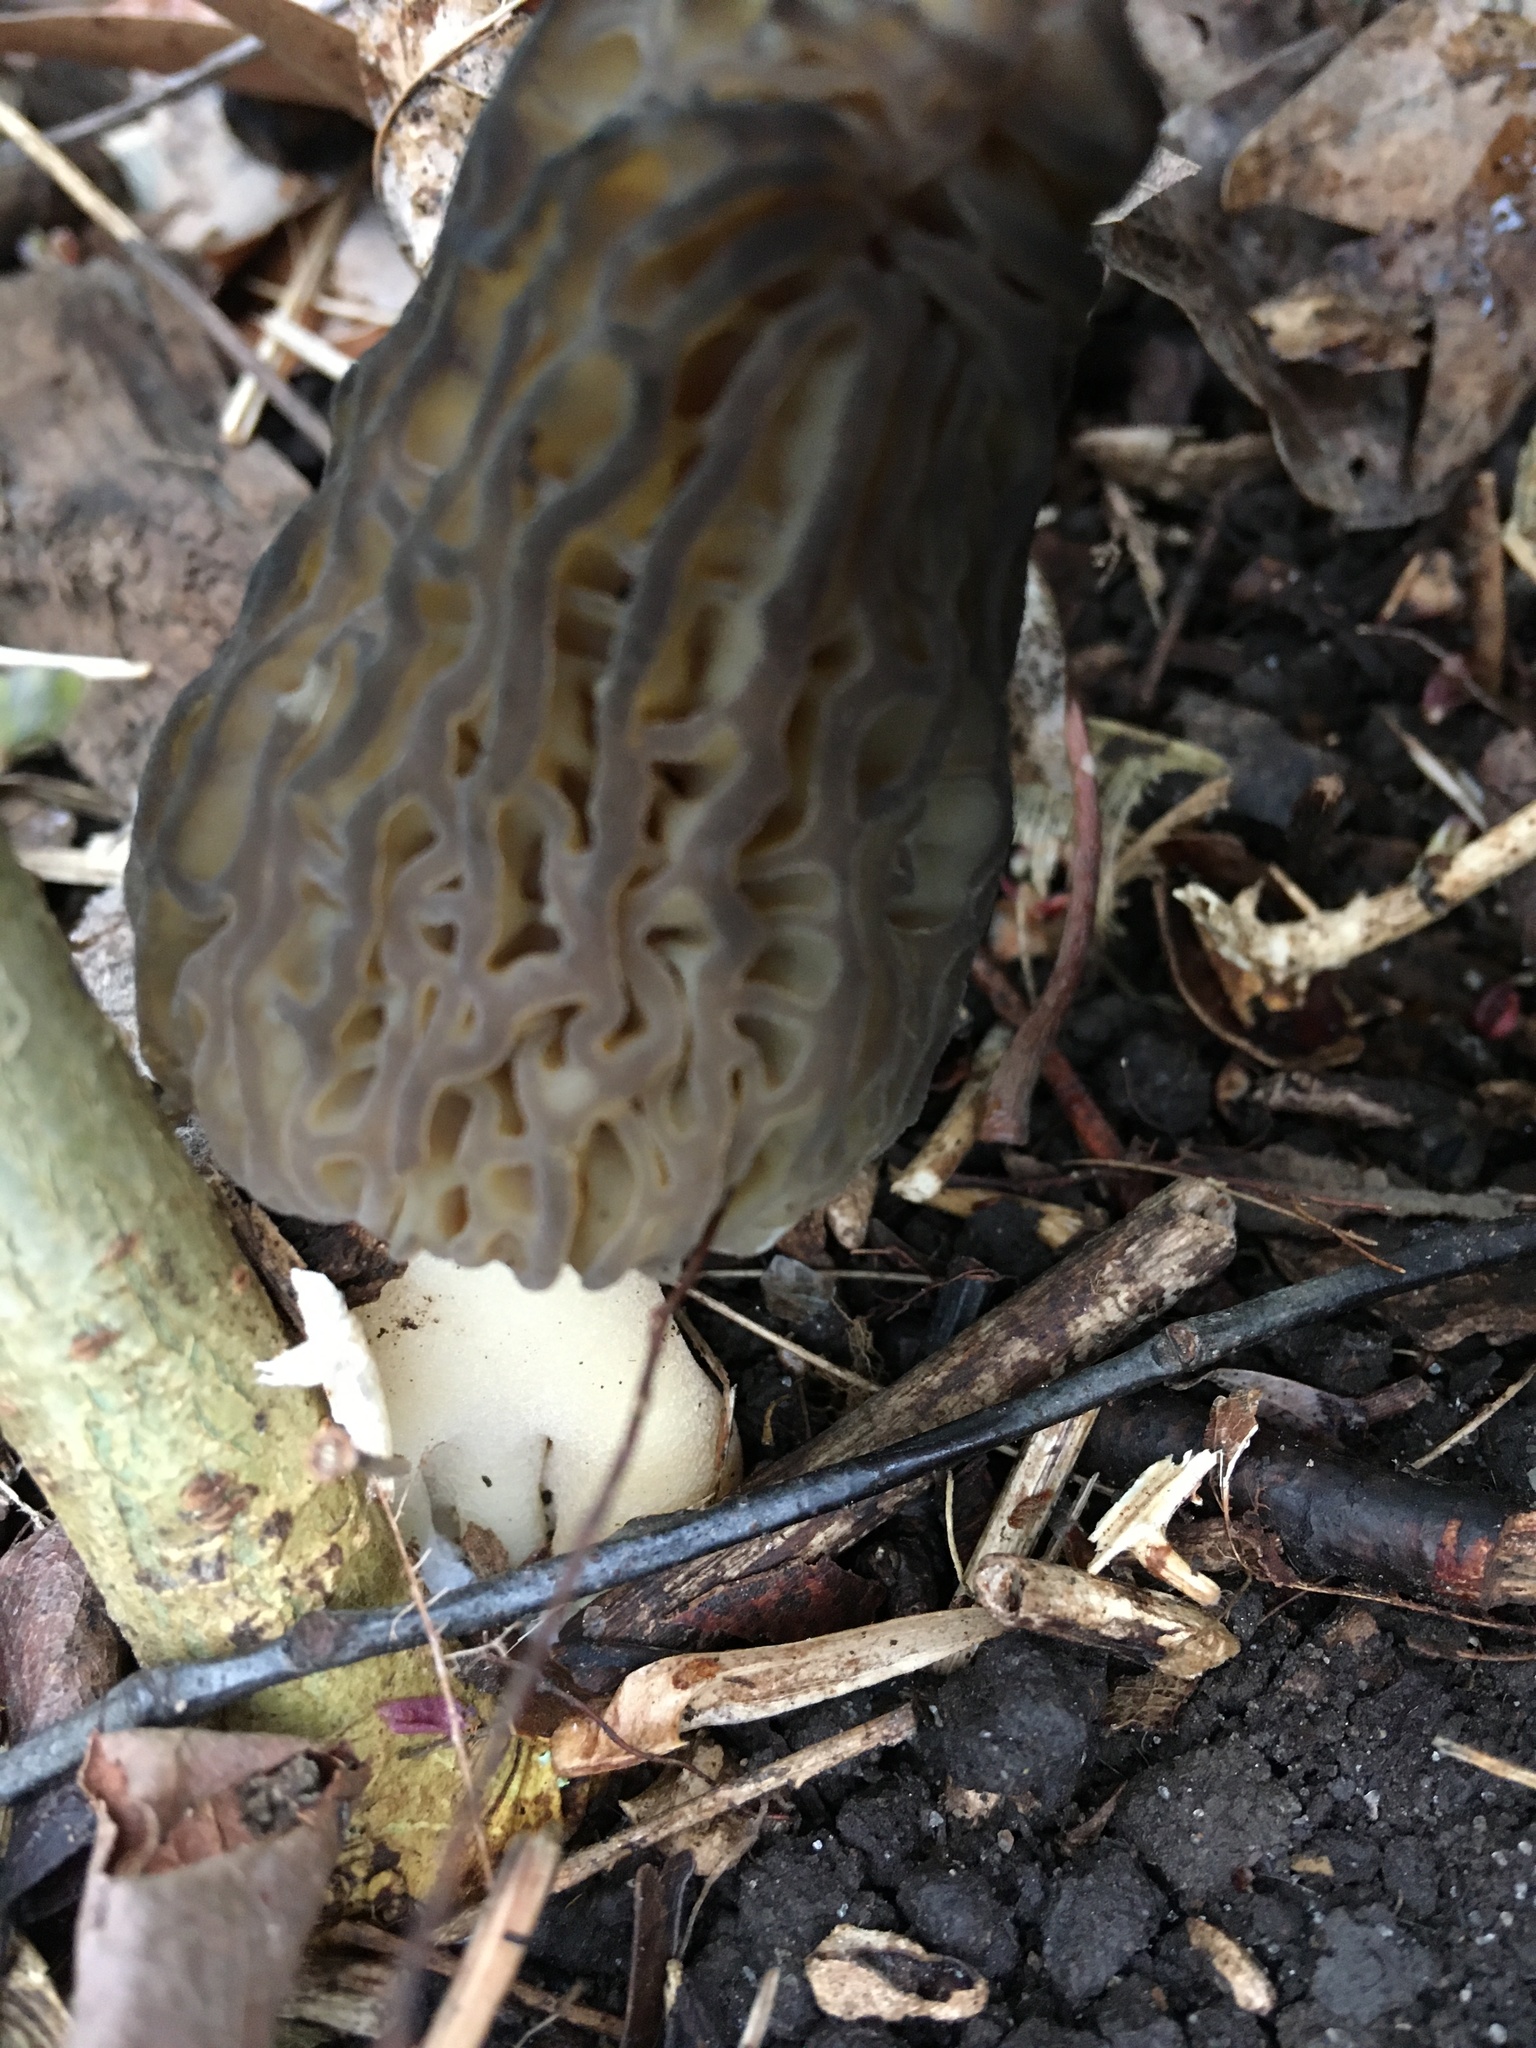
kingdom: Fungi
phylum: Ascomycota
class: Pezizomycetes
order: Pezizales
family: Morchellaceae
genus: Morchella
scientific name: Morchella angusticeps
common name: Black morel
